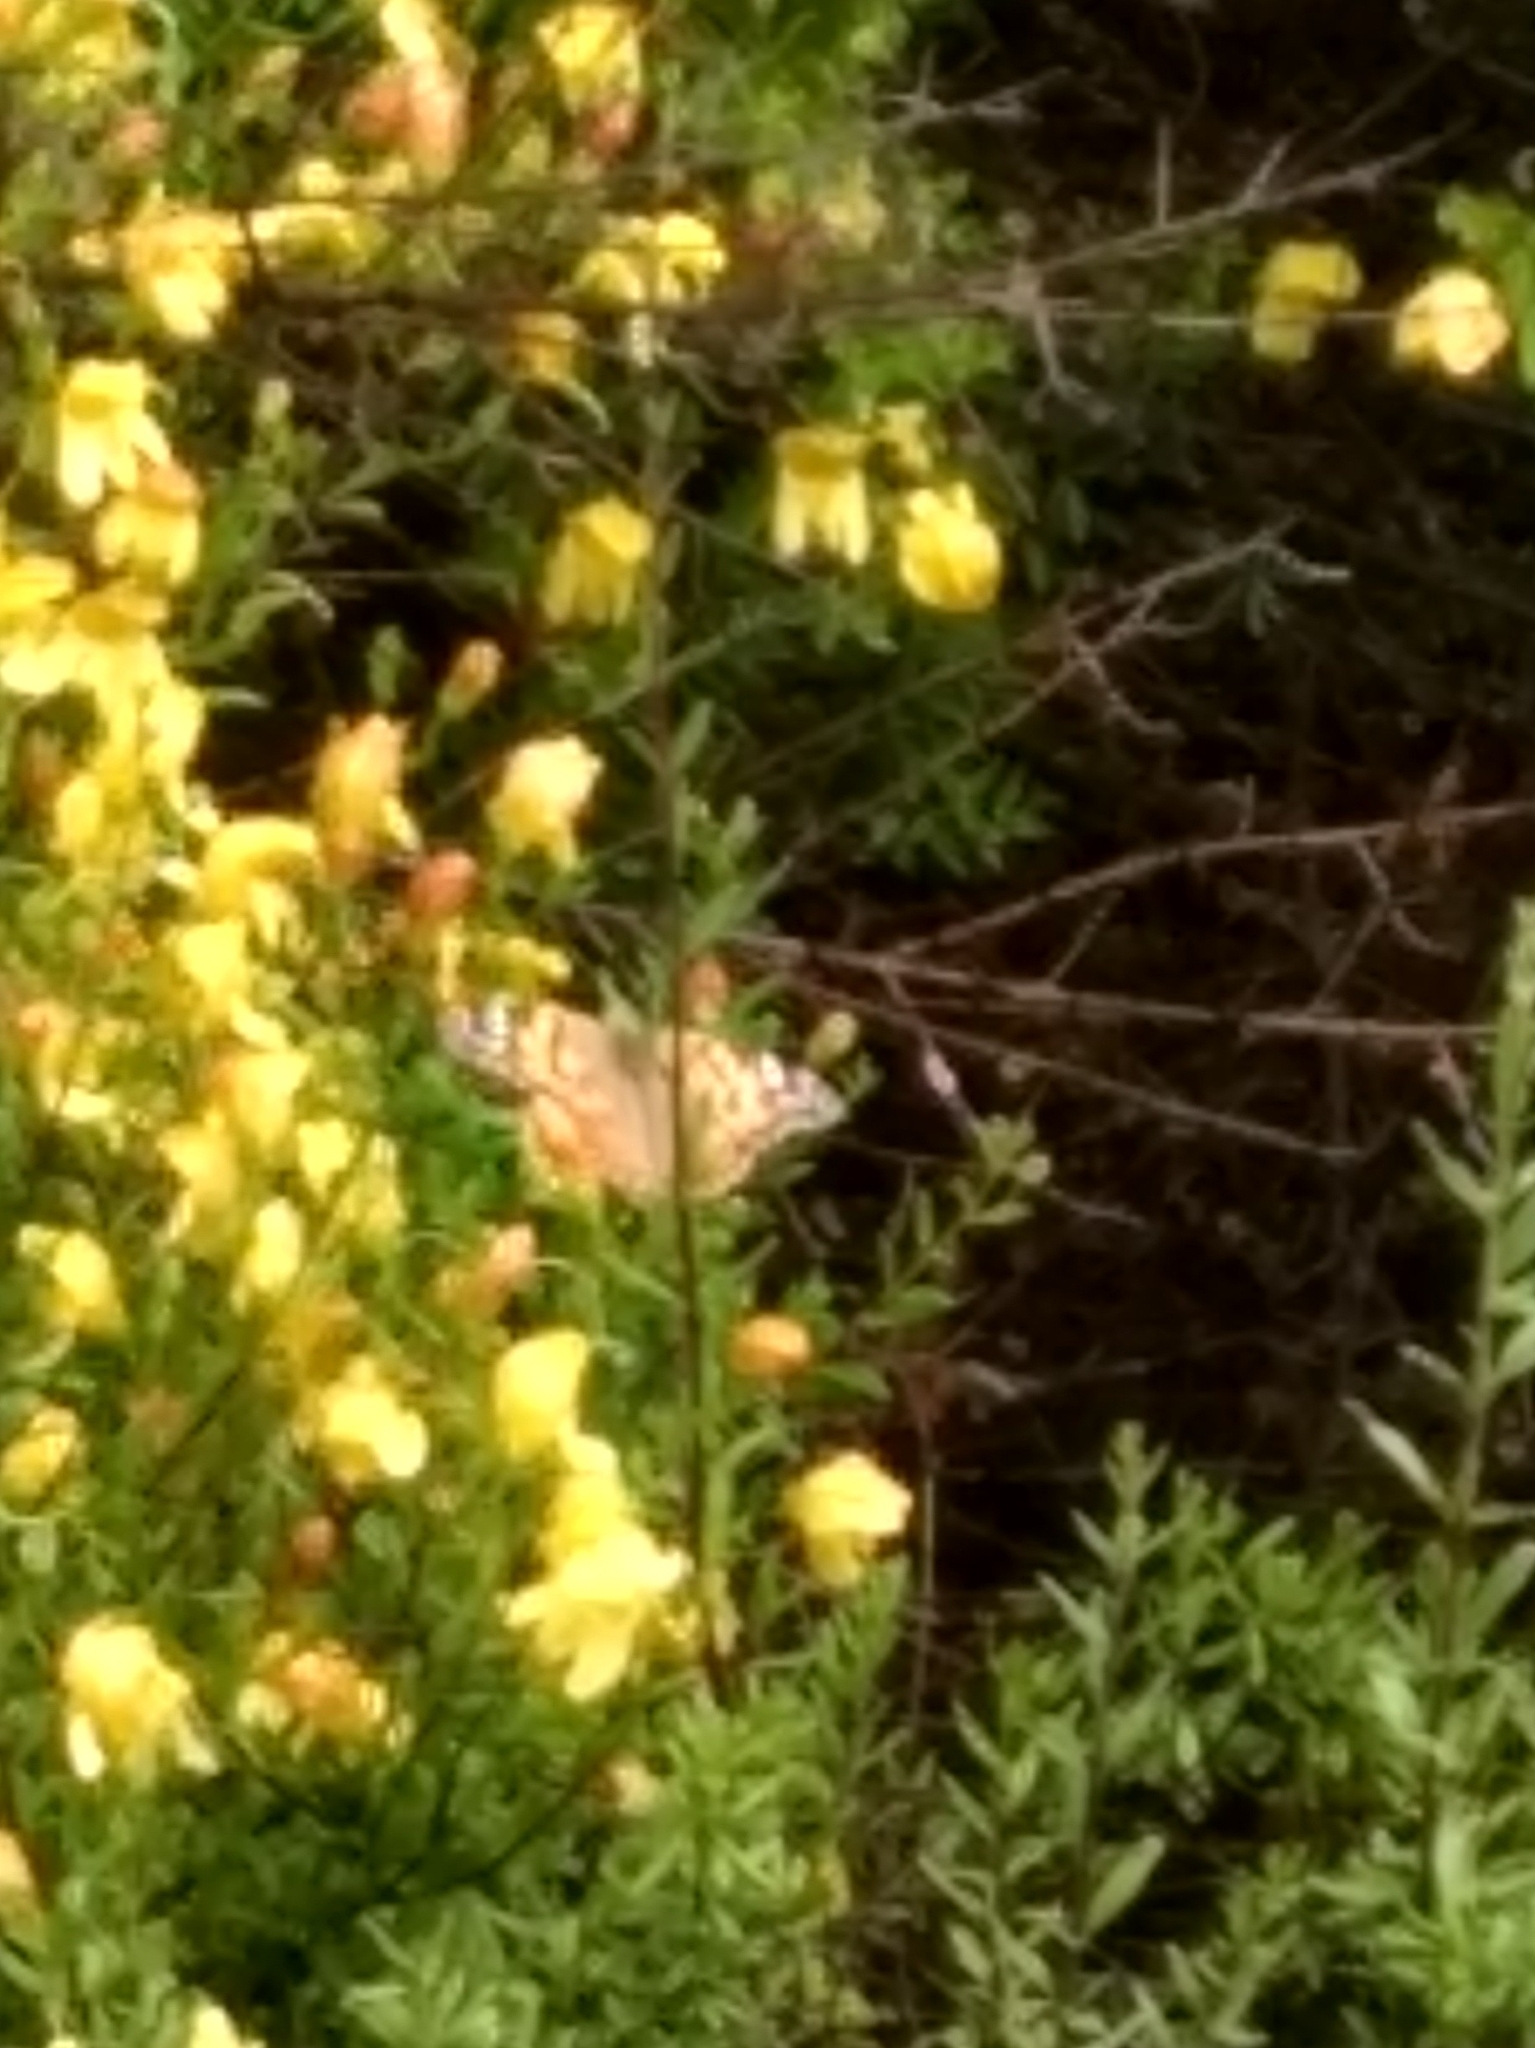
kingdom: Animalia
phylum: Arthropoda
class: Insecta
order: Lepidoptera
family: Nymphalidae
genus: Vanessa
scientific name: Vanessa cardui
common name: Painted lady
